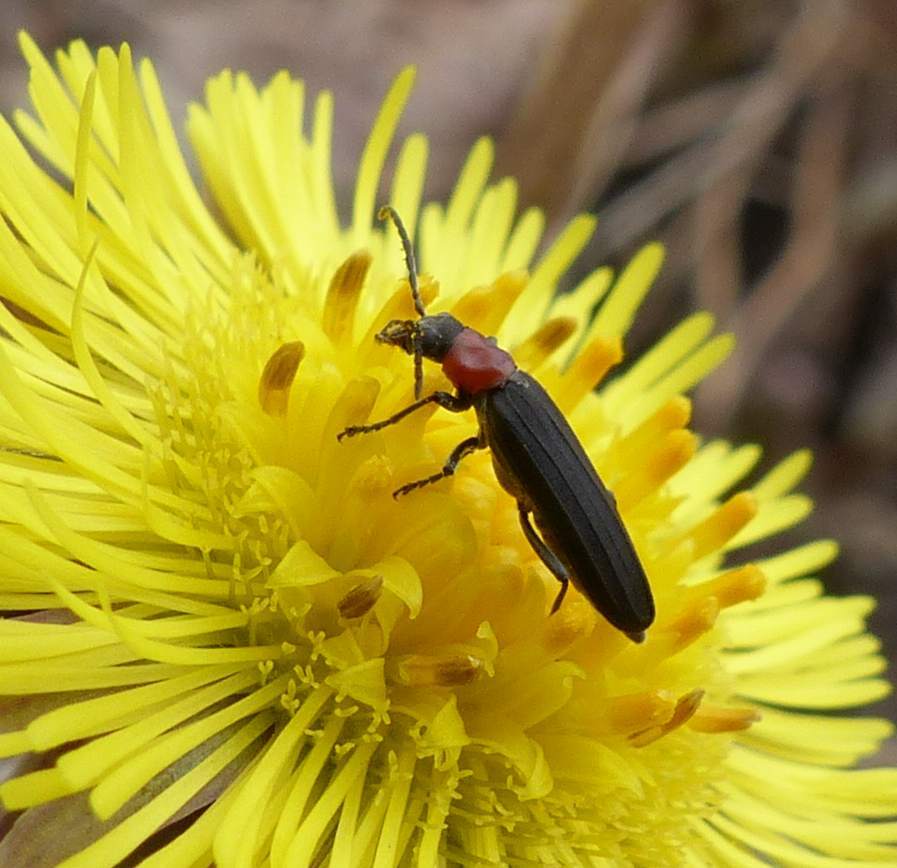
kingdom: Animalia
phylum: Arthropoda
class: Insecta
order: Coleoptera
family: Oedemeridae
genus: Ischnomera
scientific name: Ischnomera
